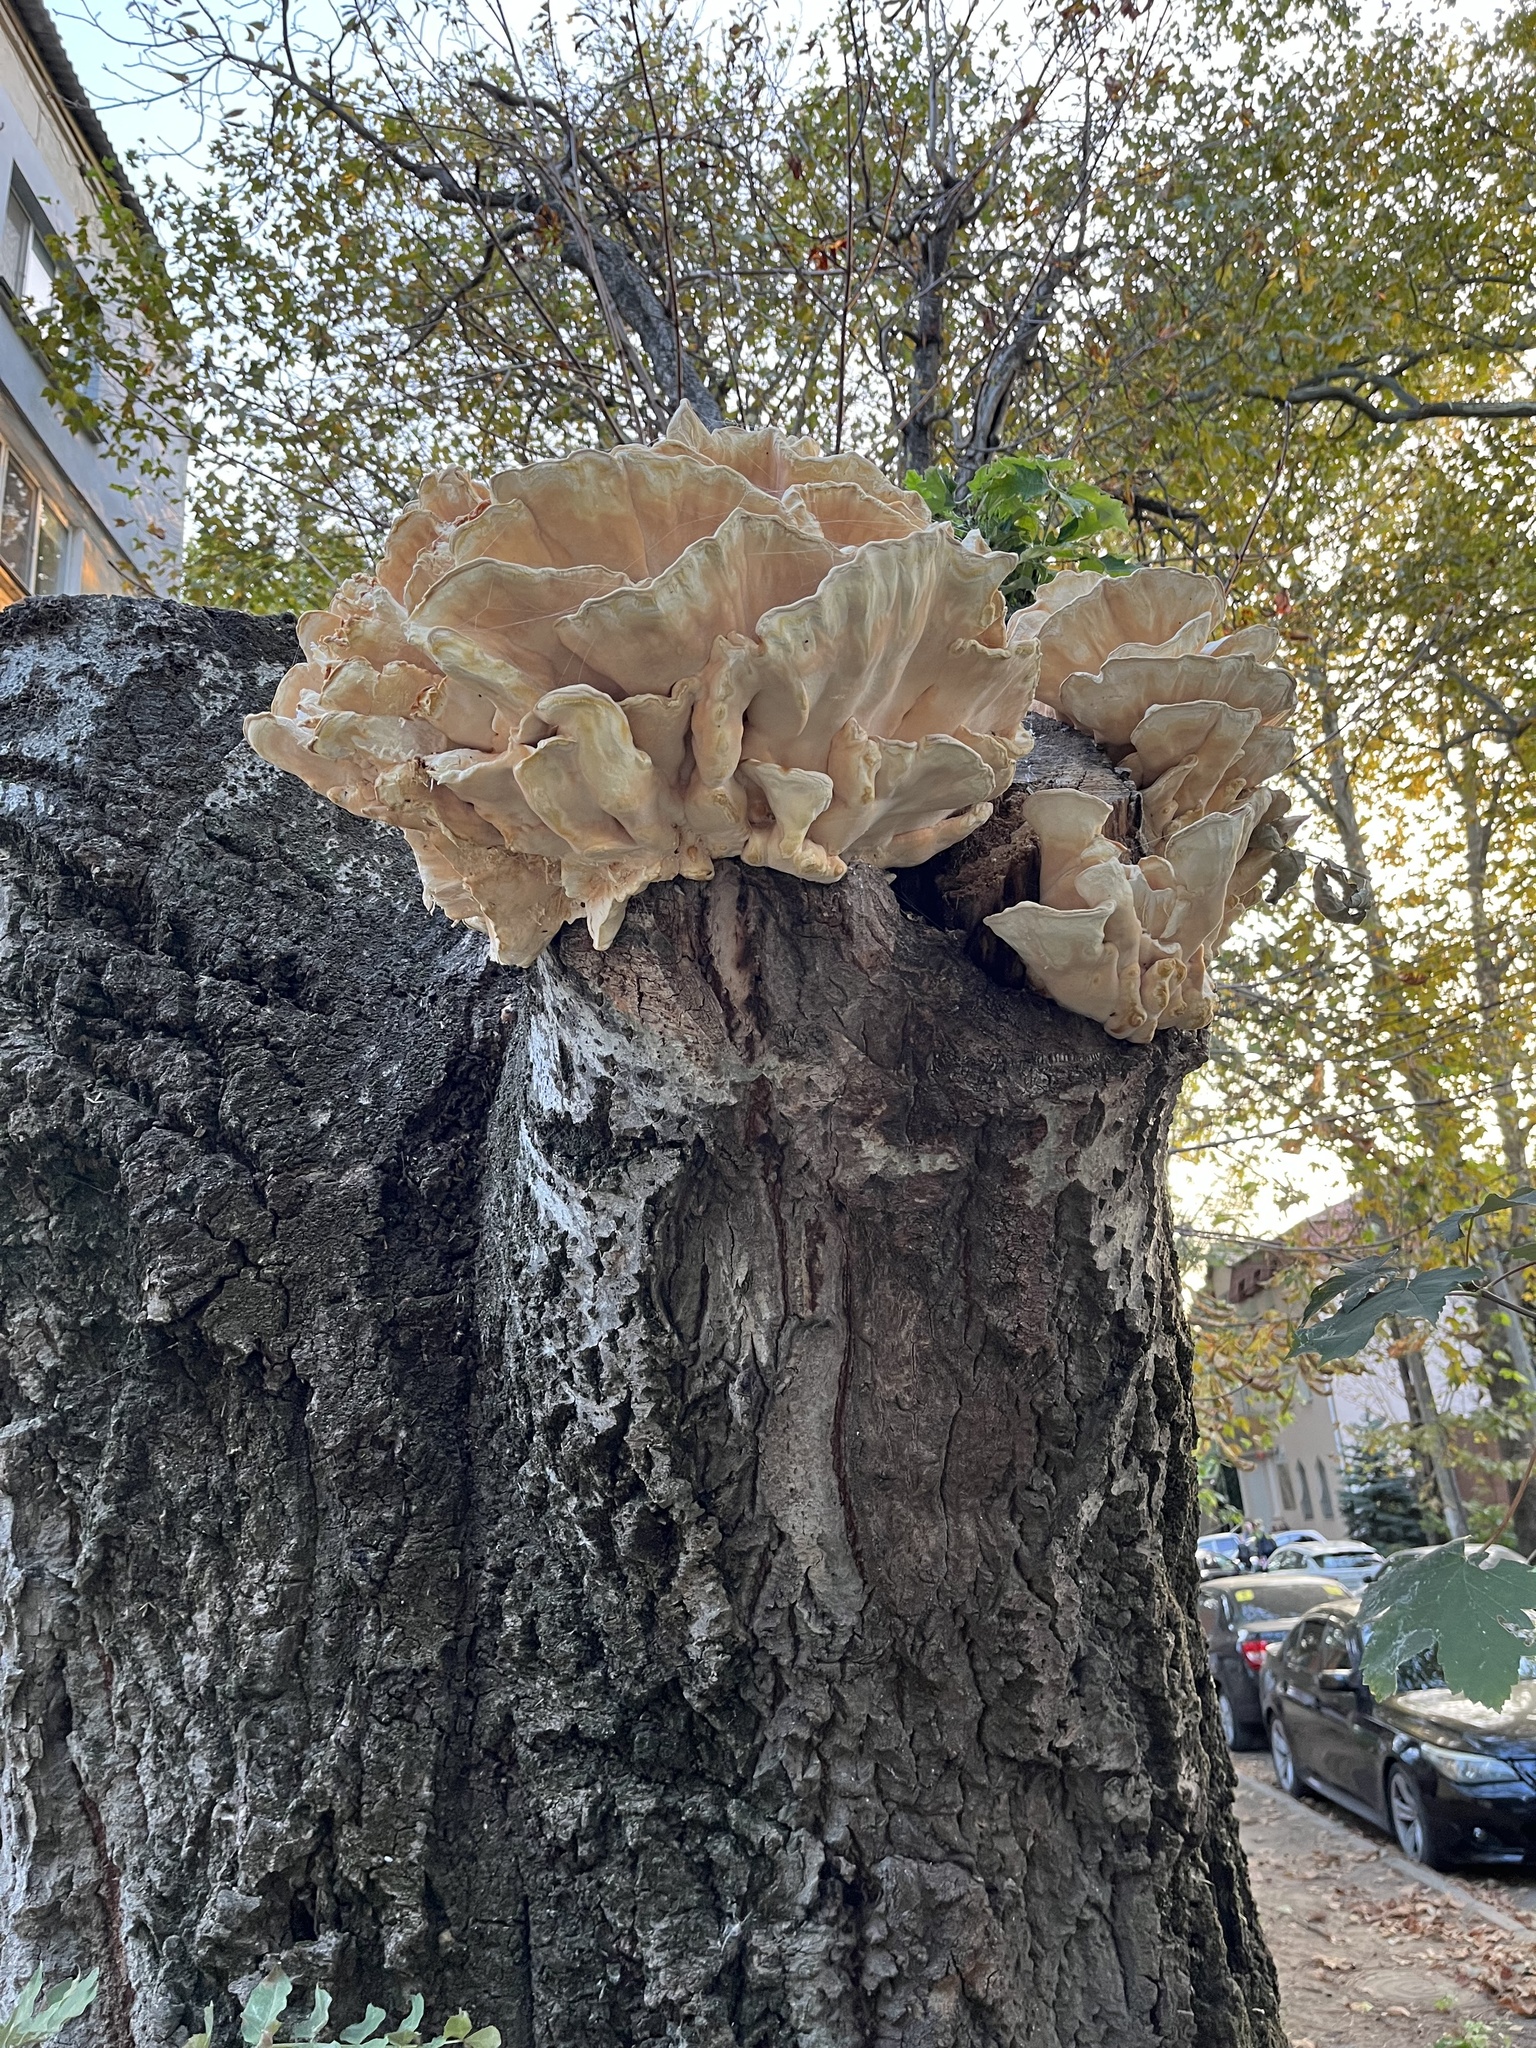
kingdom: Fungi
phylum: Basidiomycota
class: Agaricomycetes
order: Polyporales
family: Laetiporaceae
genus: Laetiporus
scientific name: Laetiporus sulphureus
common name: Chicken of the woods
